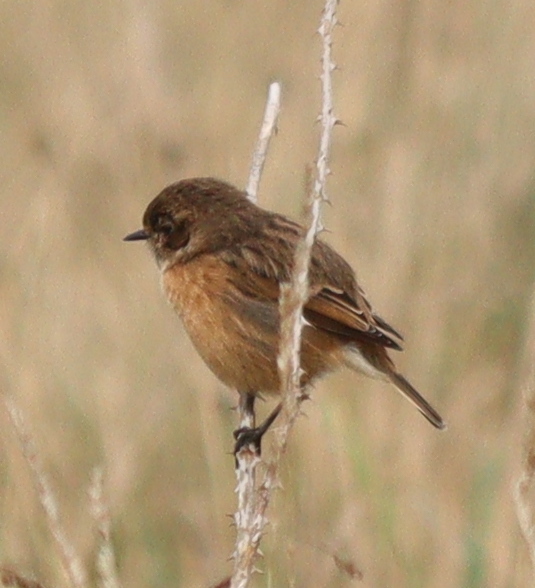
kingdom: Animalia
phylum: Chordata
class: Aves
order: Passeriformes
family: Muscicapidae
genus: Saxicola
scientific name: Saxicola rubicola
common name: European stonechat
